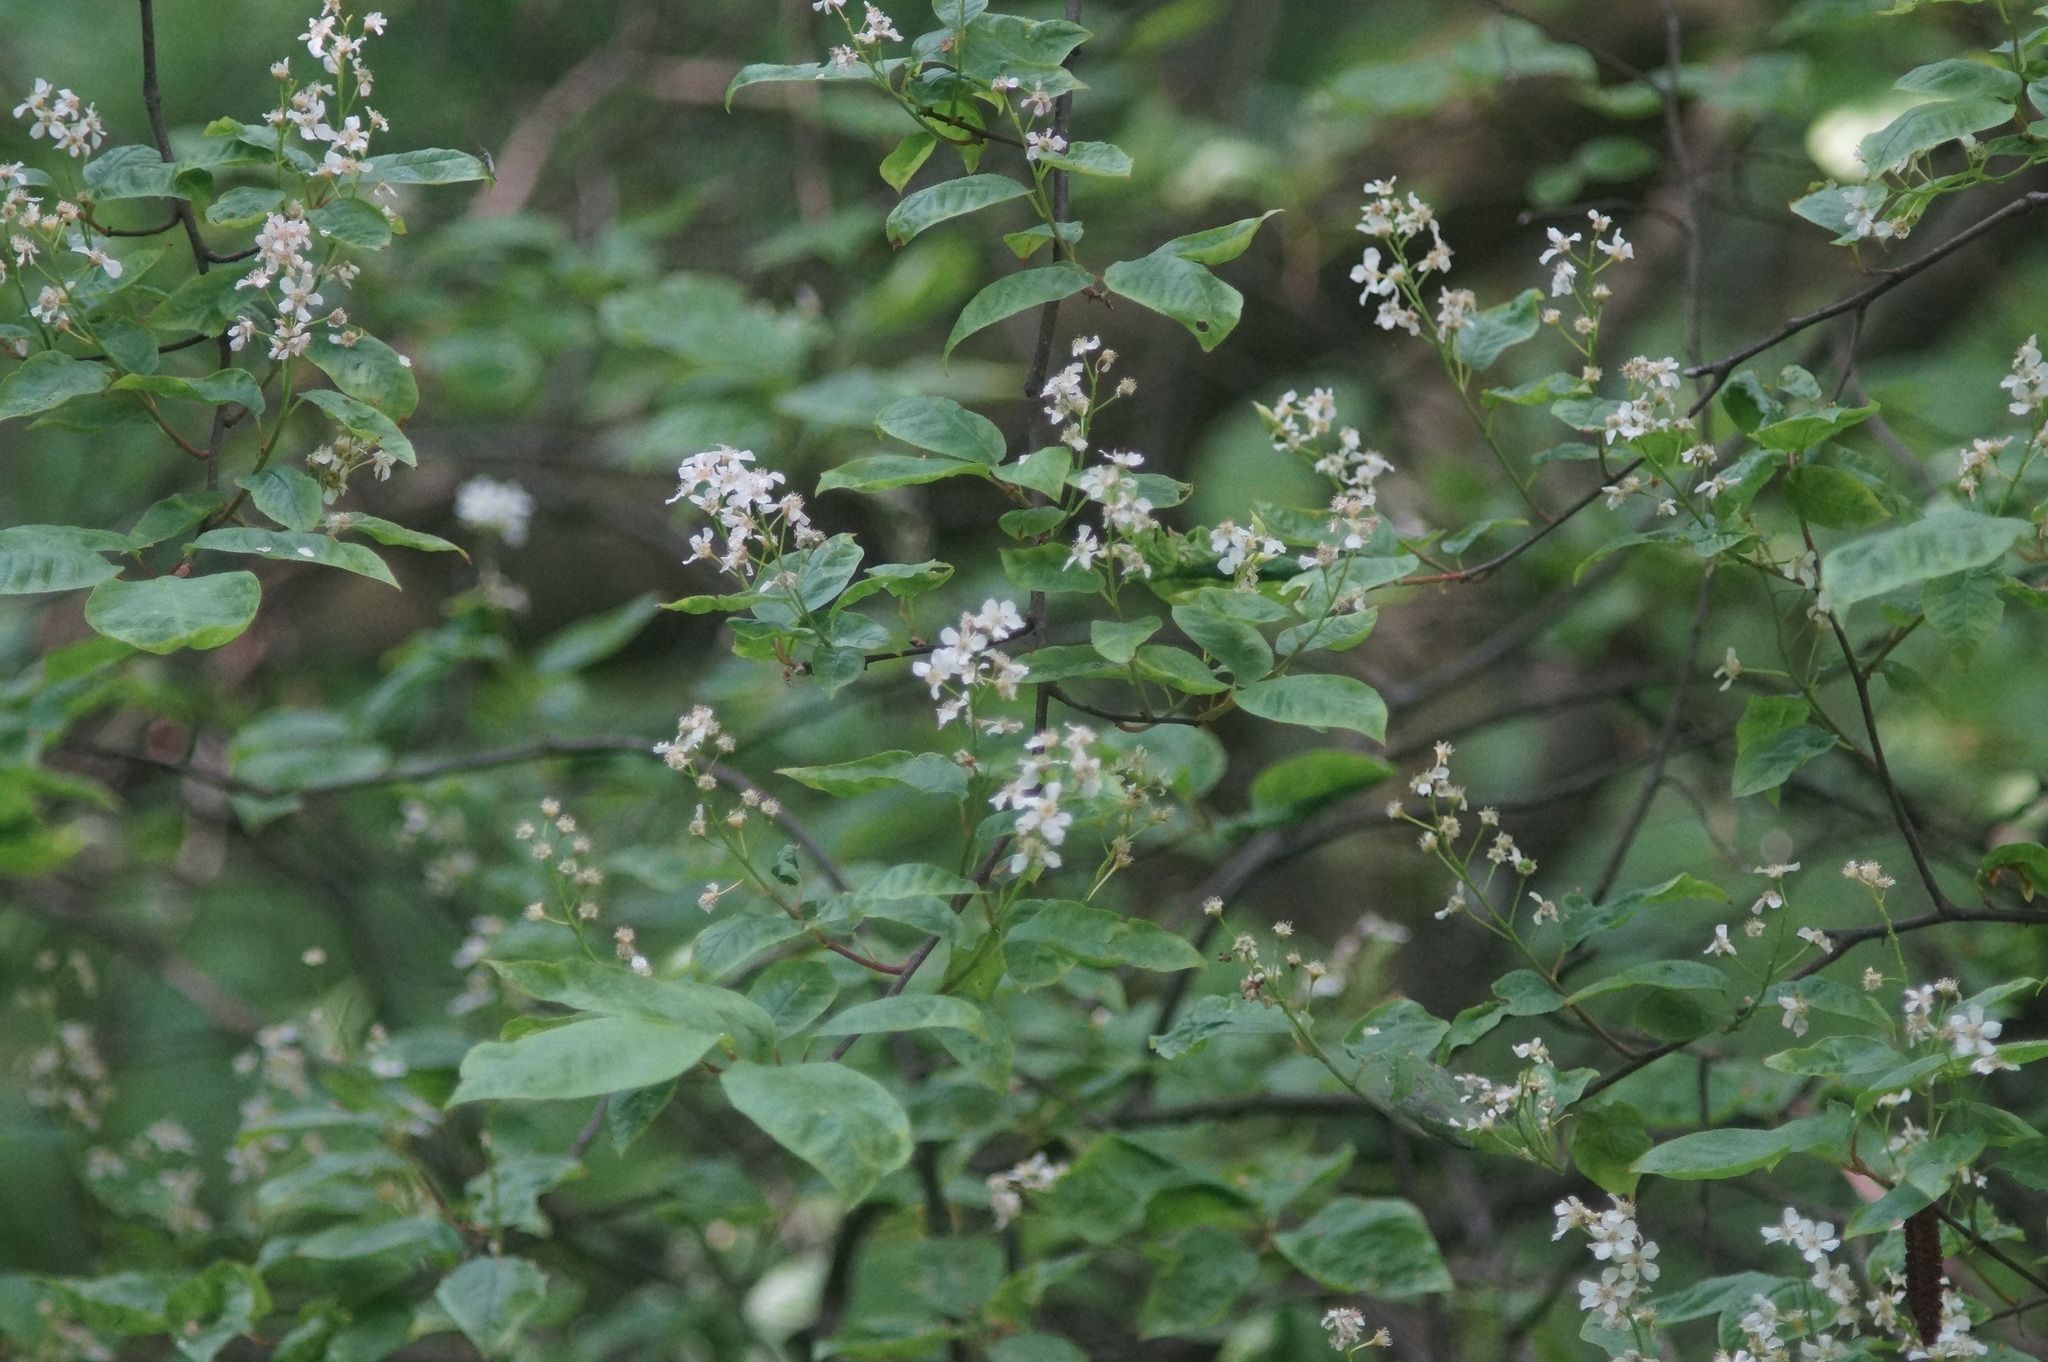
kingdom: Plantae
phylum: Tracheophyta
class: Magnoliopsida
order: Rosales
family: Rosaceae
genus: Prunus
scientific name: Prunus padus
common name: Bird cherry
